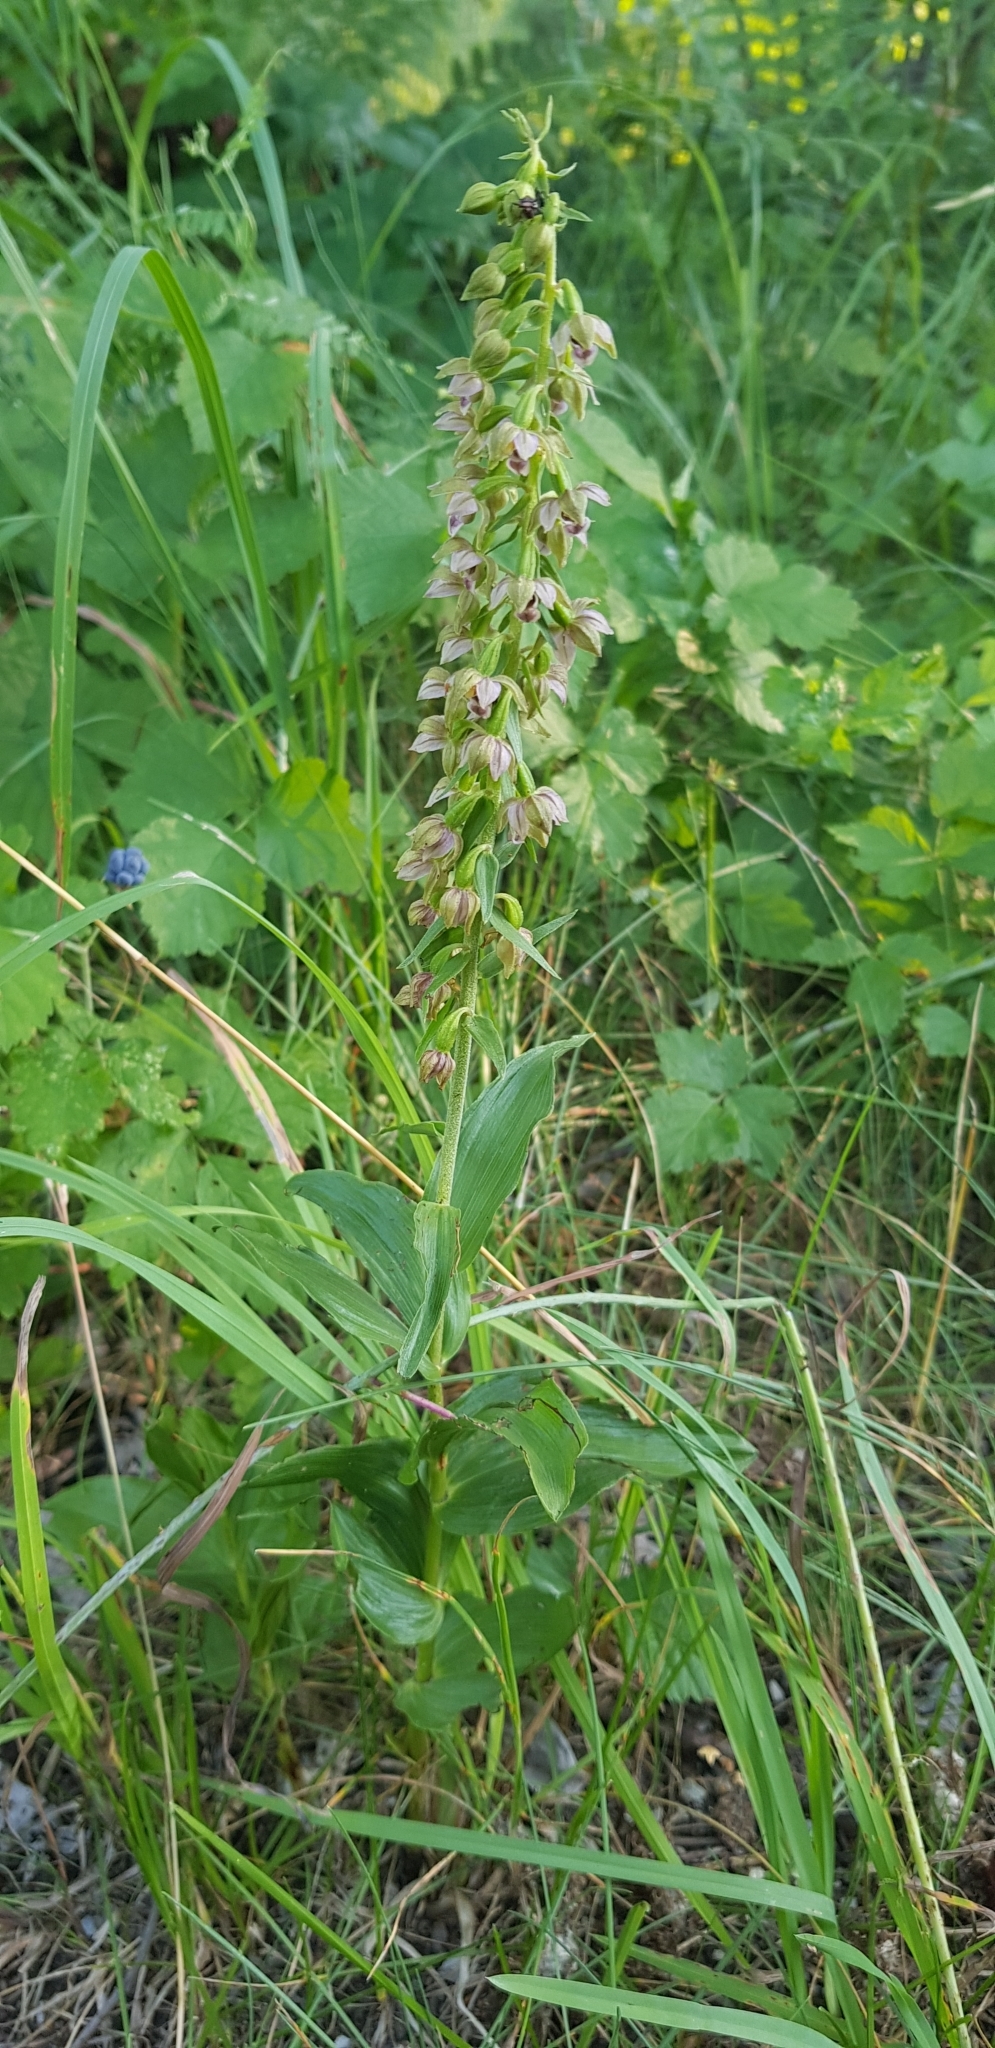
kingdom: Plantae
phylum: Tracheophyta
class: Liliopsida
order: Asparagales
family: Orchidaceae
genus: Epipactis
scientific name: Epipactis helleborine
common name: Broad-leaved helleborine
